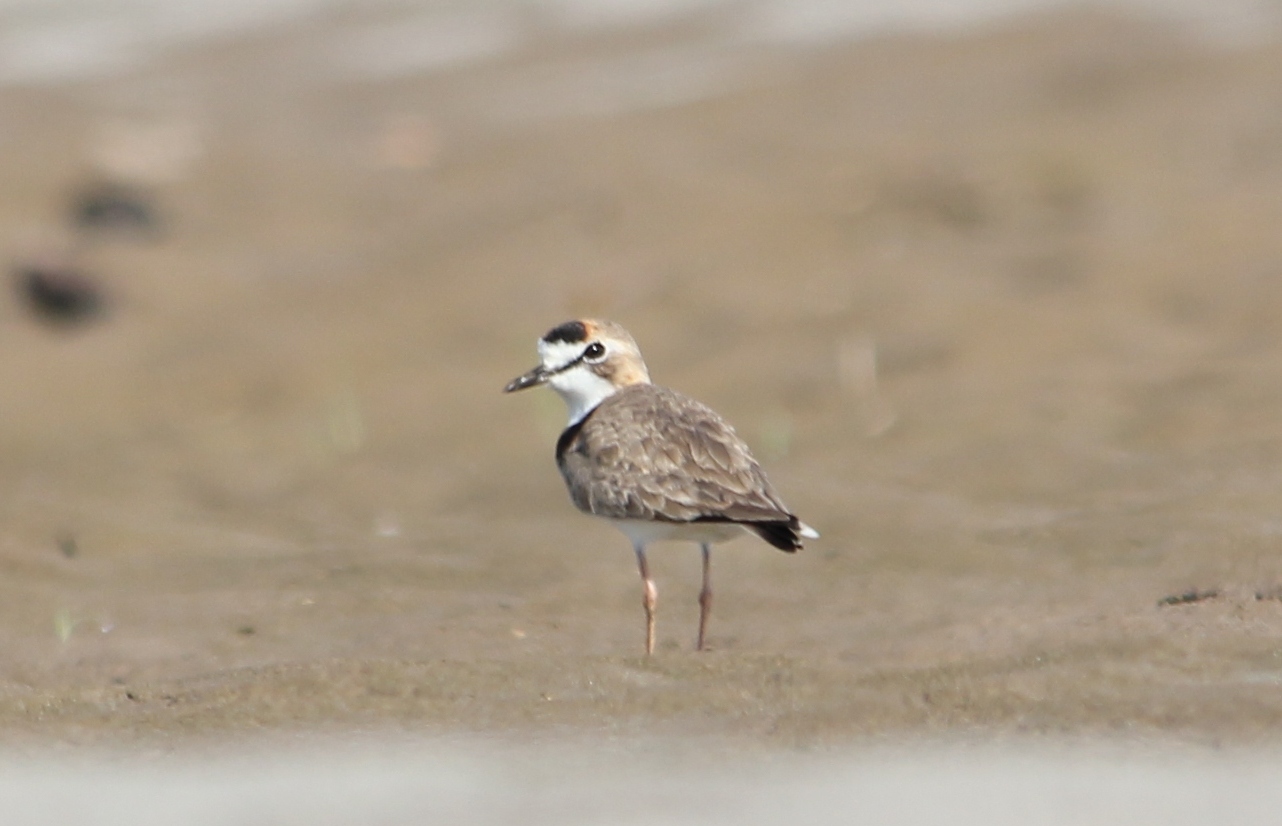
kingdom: Animalia
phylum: Chordata
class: Aves
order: Charadriiformes
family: Charadriidae
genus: Anarhynchus
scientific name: Anarhynchus
